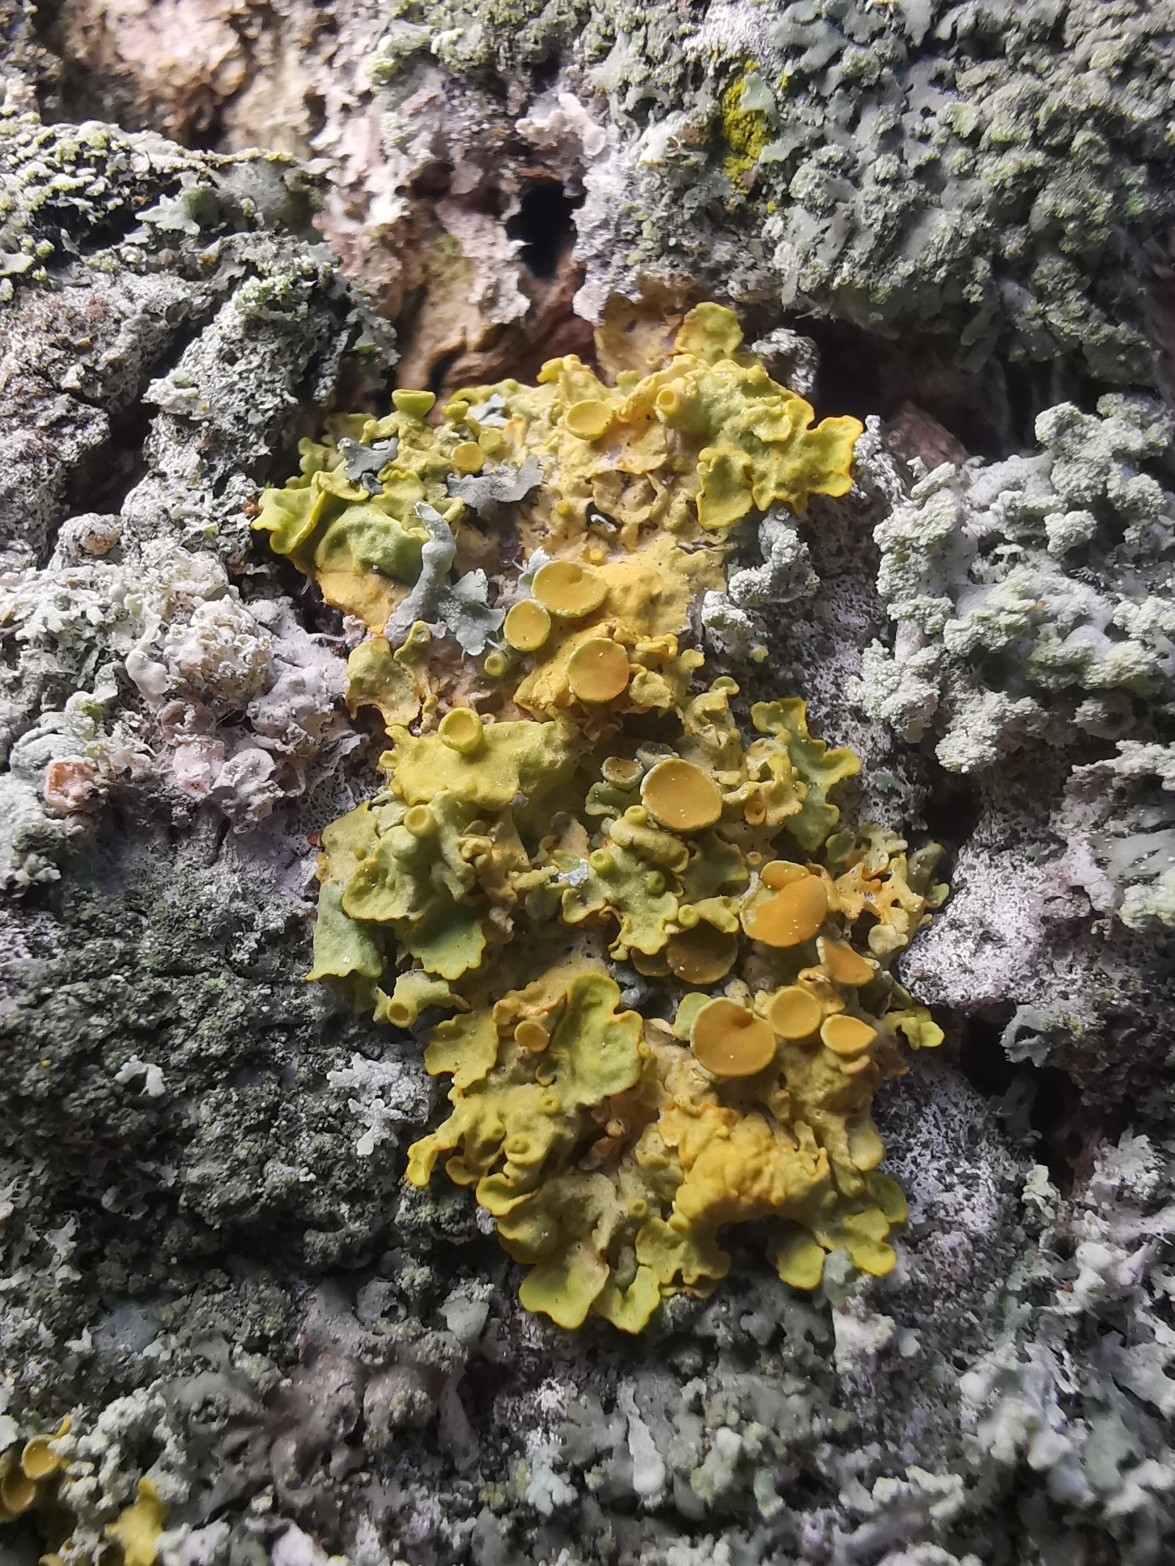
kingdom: Fungi
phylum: Ascomycota
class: Lecanoromycetes
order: Teloschistales
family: Teloschistaceae
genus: Xanthoria
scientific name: Xanthoria parietina
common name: Common orange lichen
